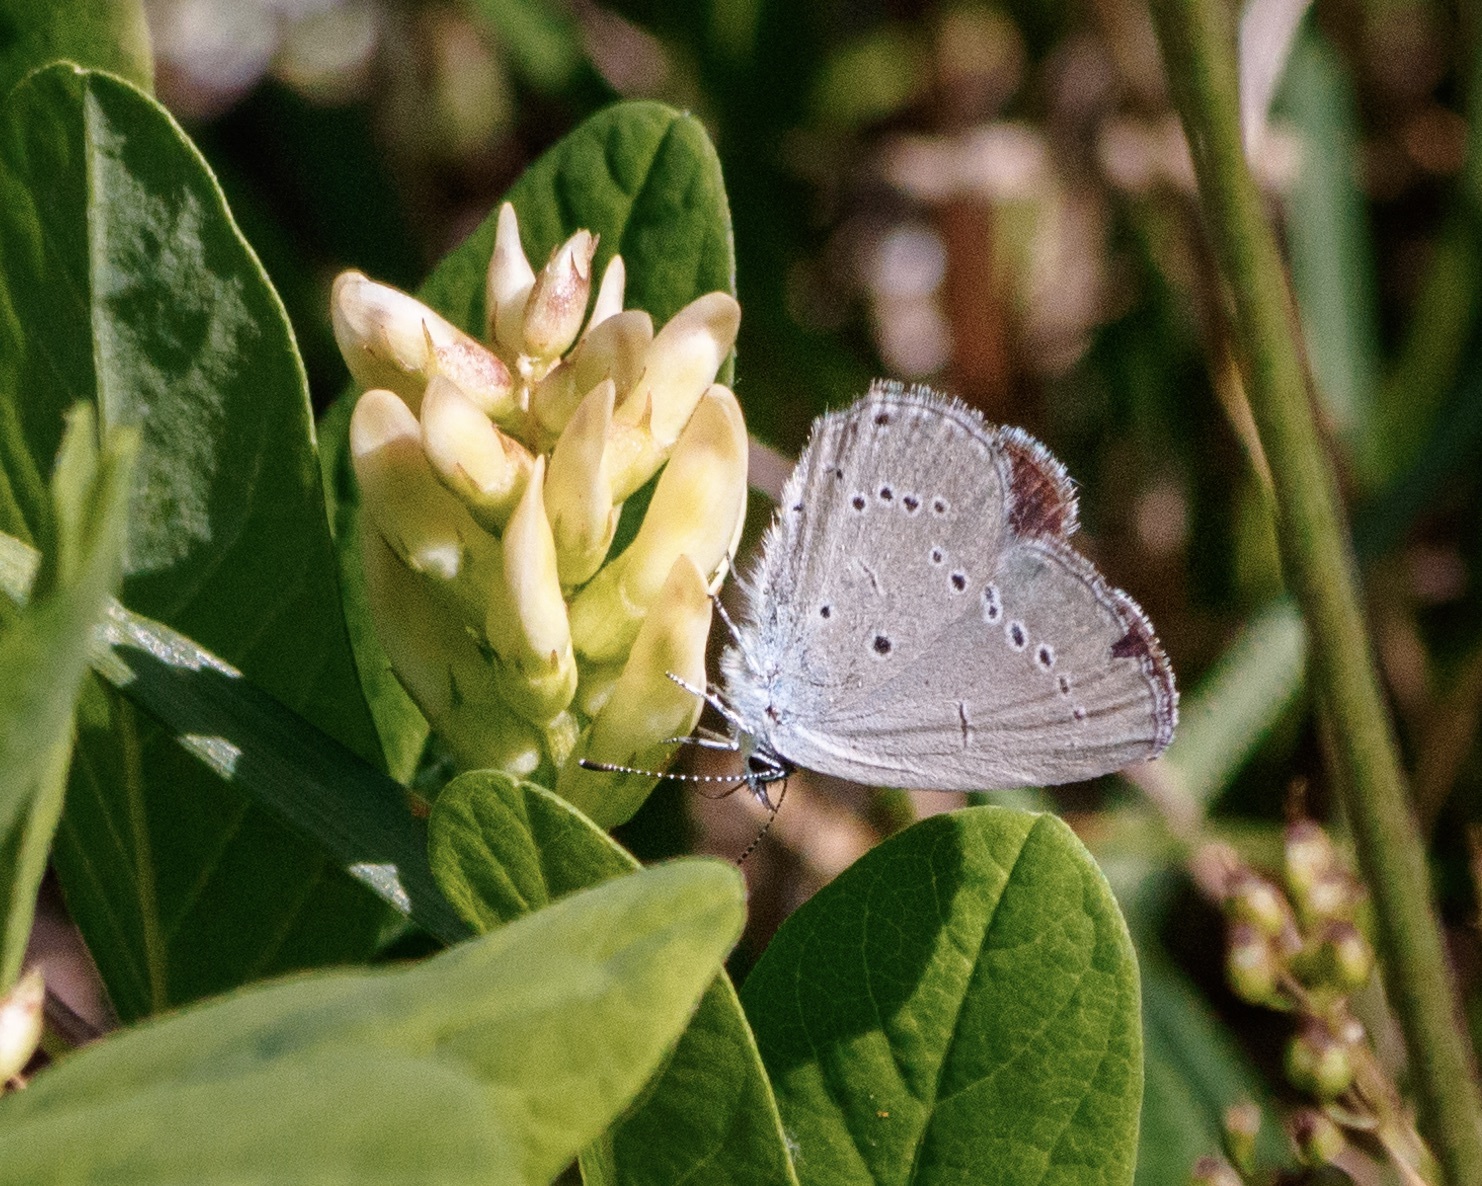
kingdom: Animalia
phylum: Arthropoda
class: Insecta
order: Lepidoptera
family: Lycaenidae
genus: Cupido
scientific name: Cupido minimus
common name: Small blue
